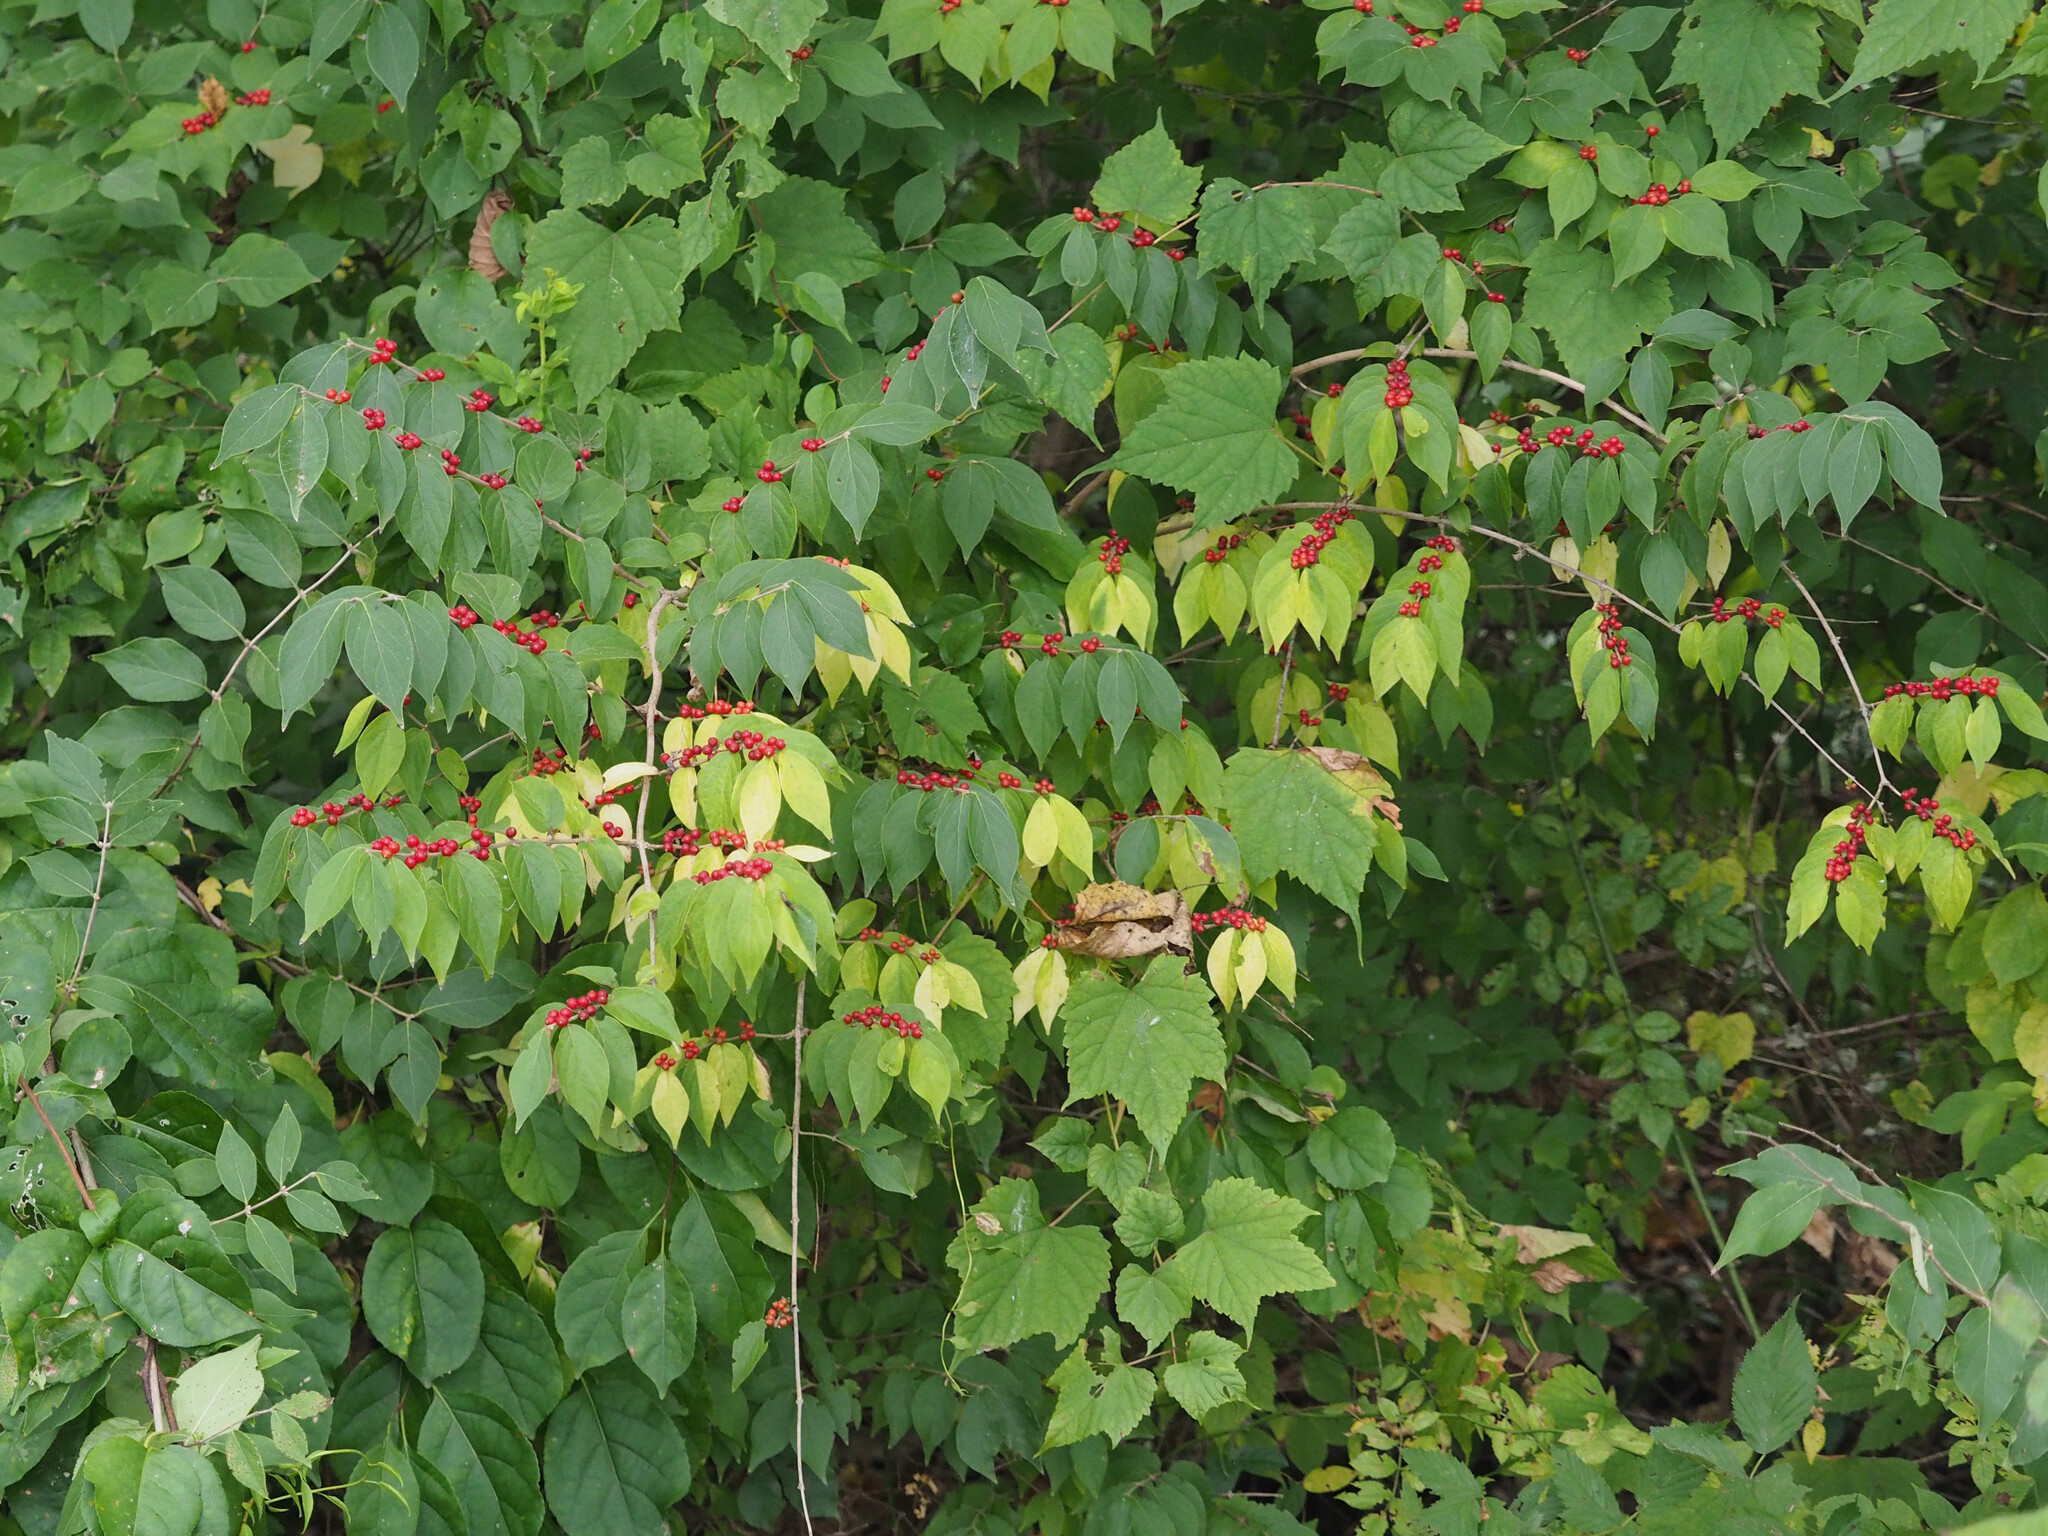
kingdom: Plantae
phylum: Tracheophyta
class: Magnoliopsida
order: Dipsacales
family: Caprifoliaceae
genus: Lonicera
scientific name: Lonicera maackii
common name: Amur honeysuckle
